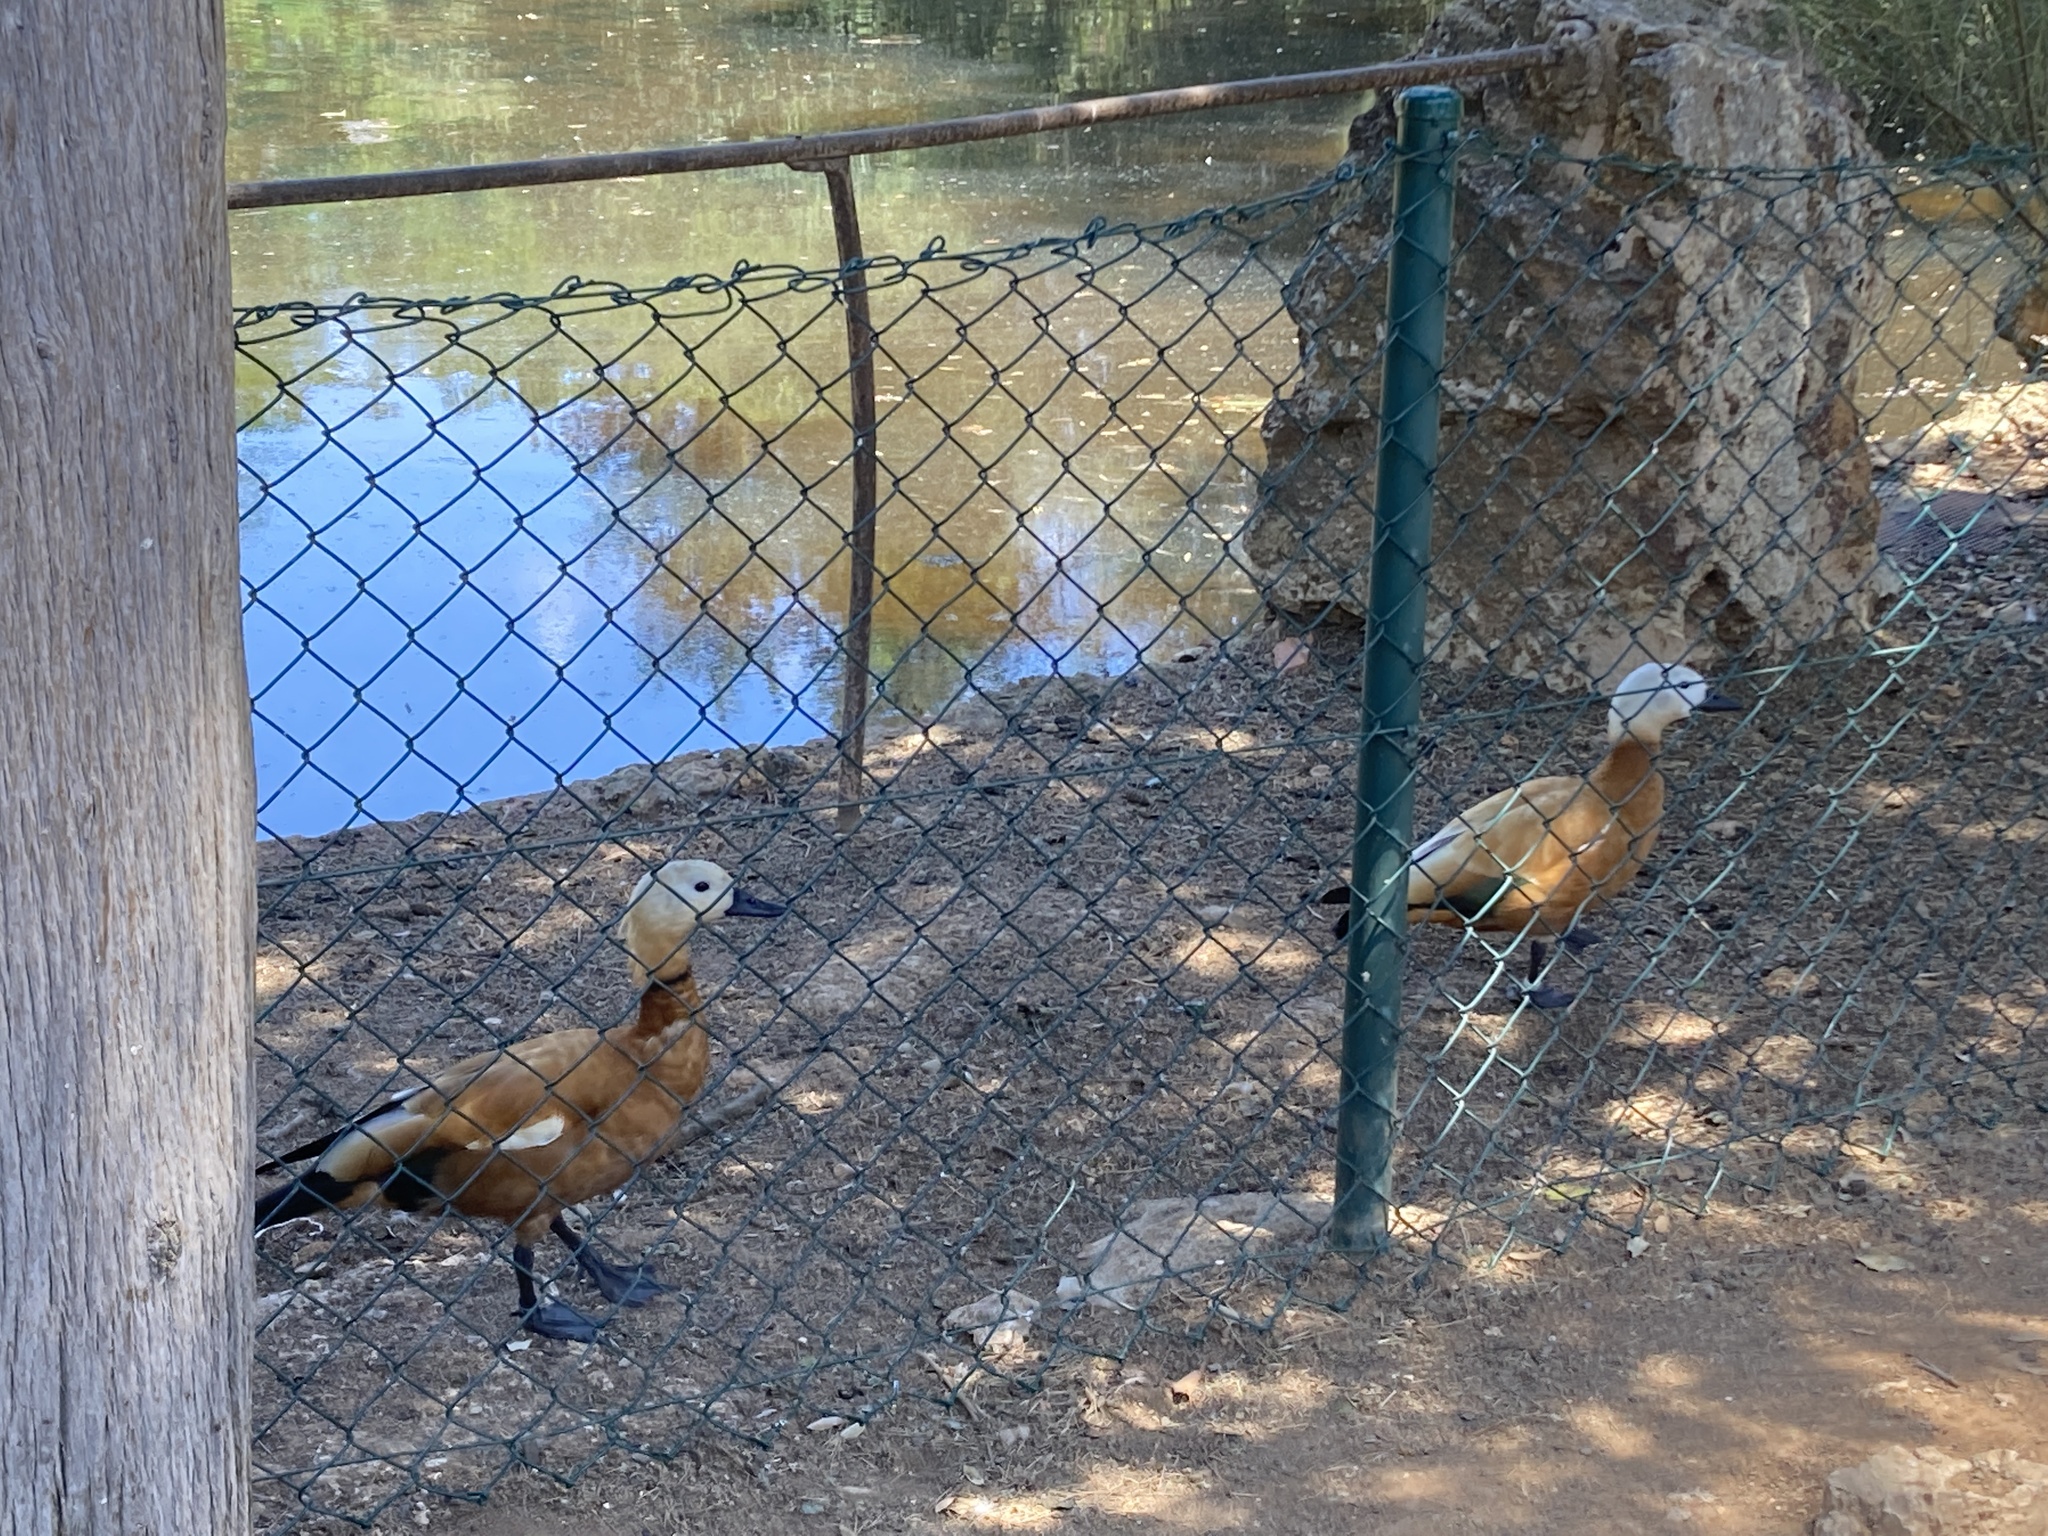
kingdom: Animalia
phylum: Chordata
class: Aves
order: Anseriformes
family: Anatidae
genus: Tadorna
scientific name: Tadorna ferruginea
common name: Ruddy shelduck
